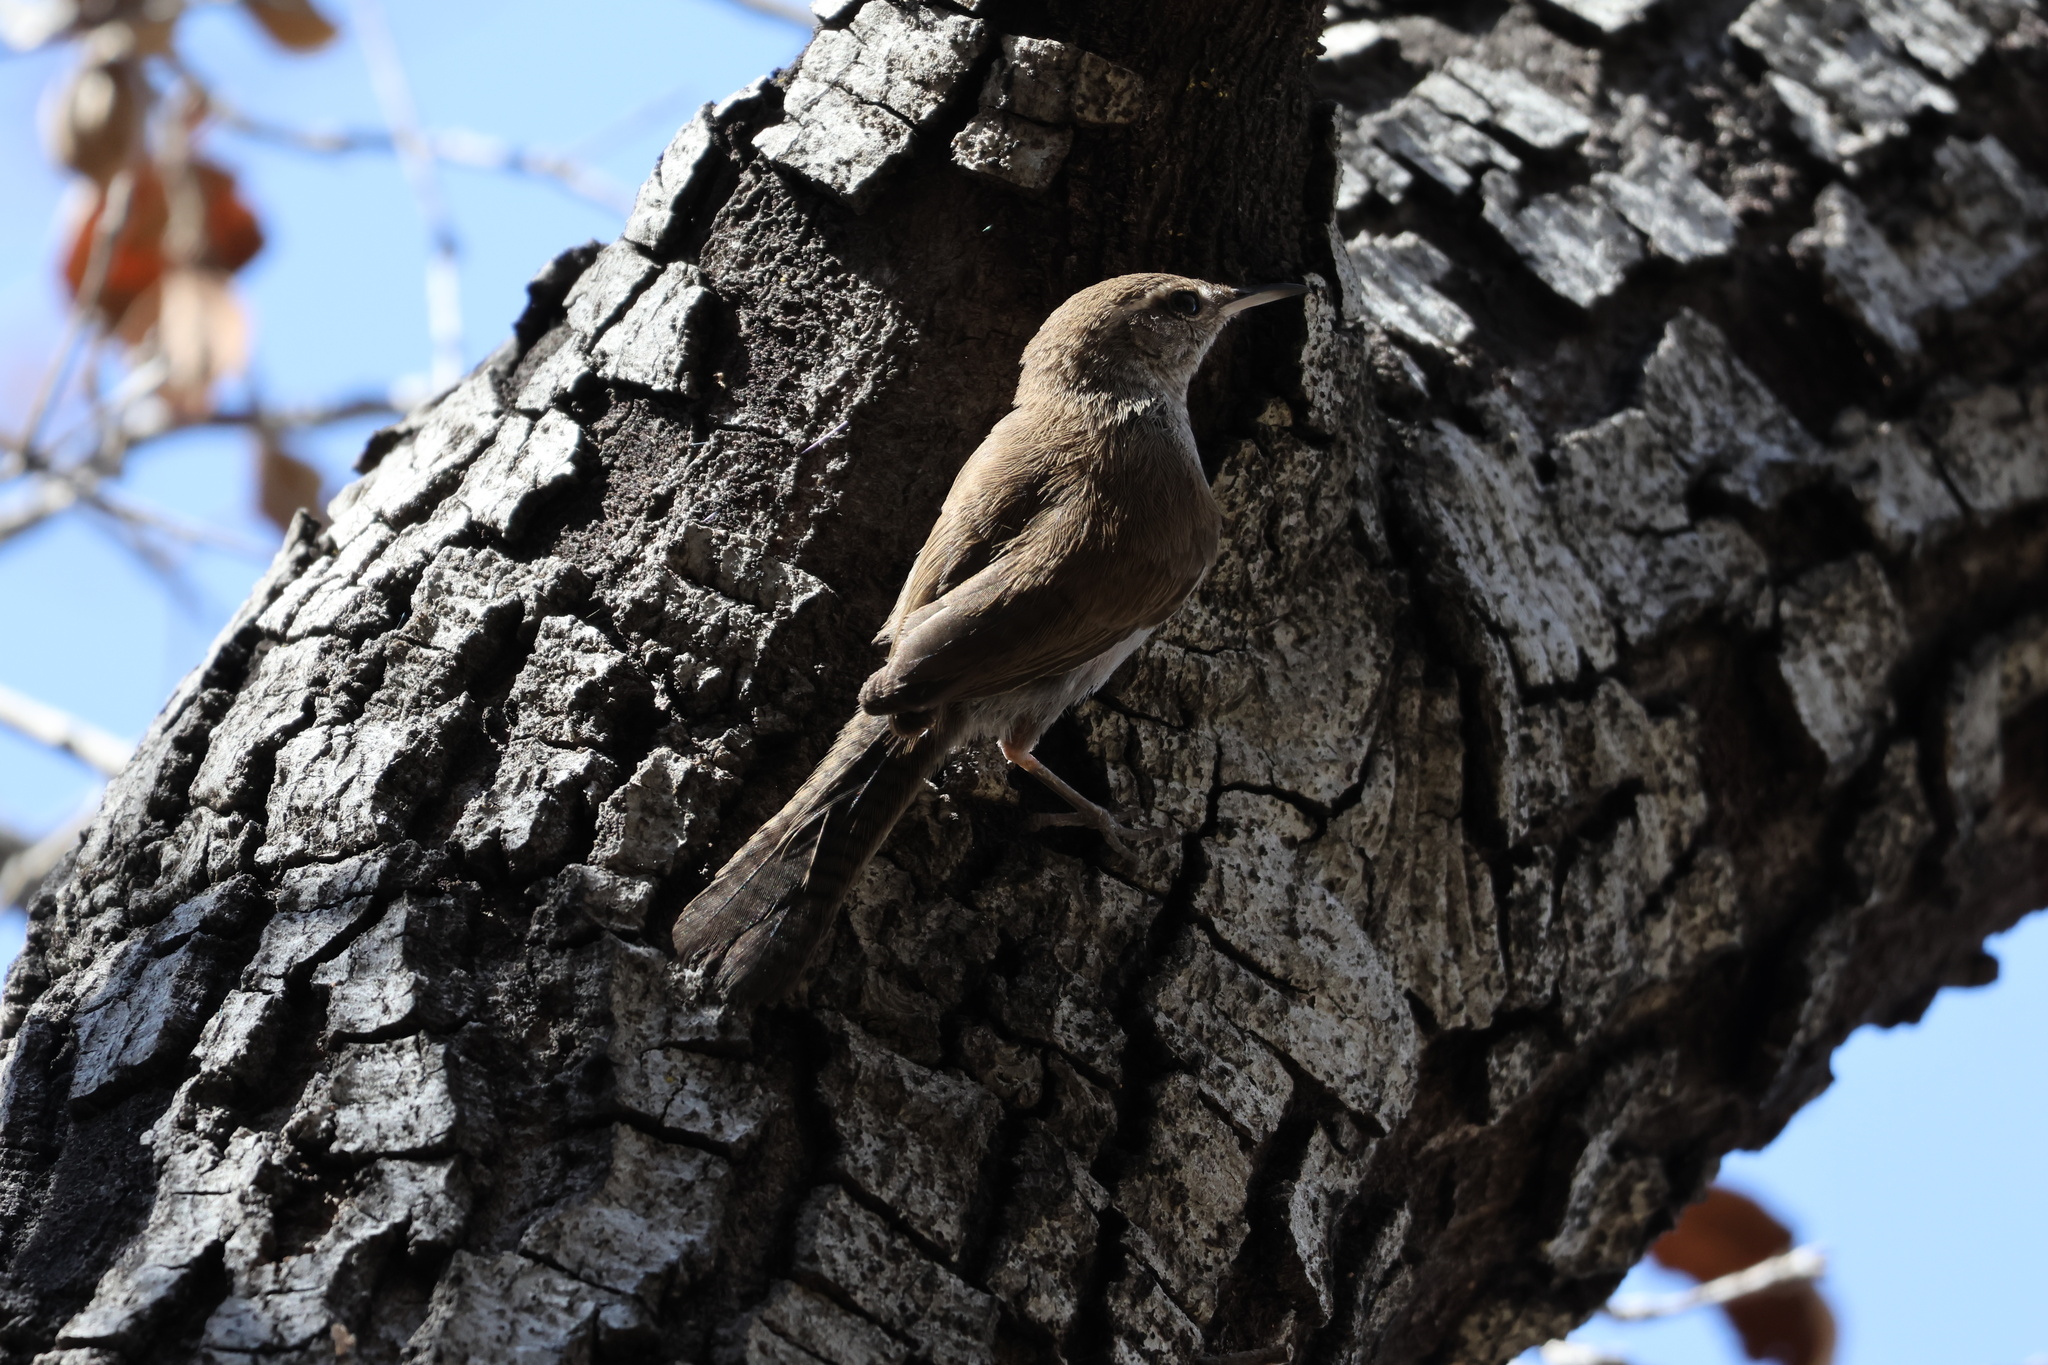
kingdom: Animalia
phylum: Chordata
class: Aves
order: Passeriformes
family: Troglodytidae
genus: Thryomanes
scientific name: Thryomanes bewickii
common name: Bewick's wren
